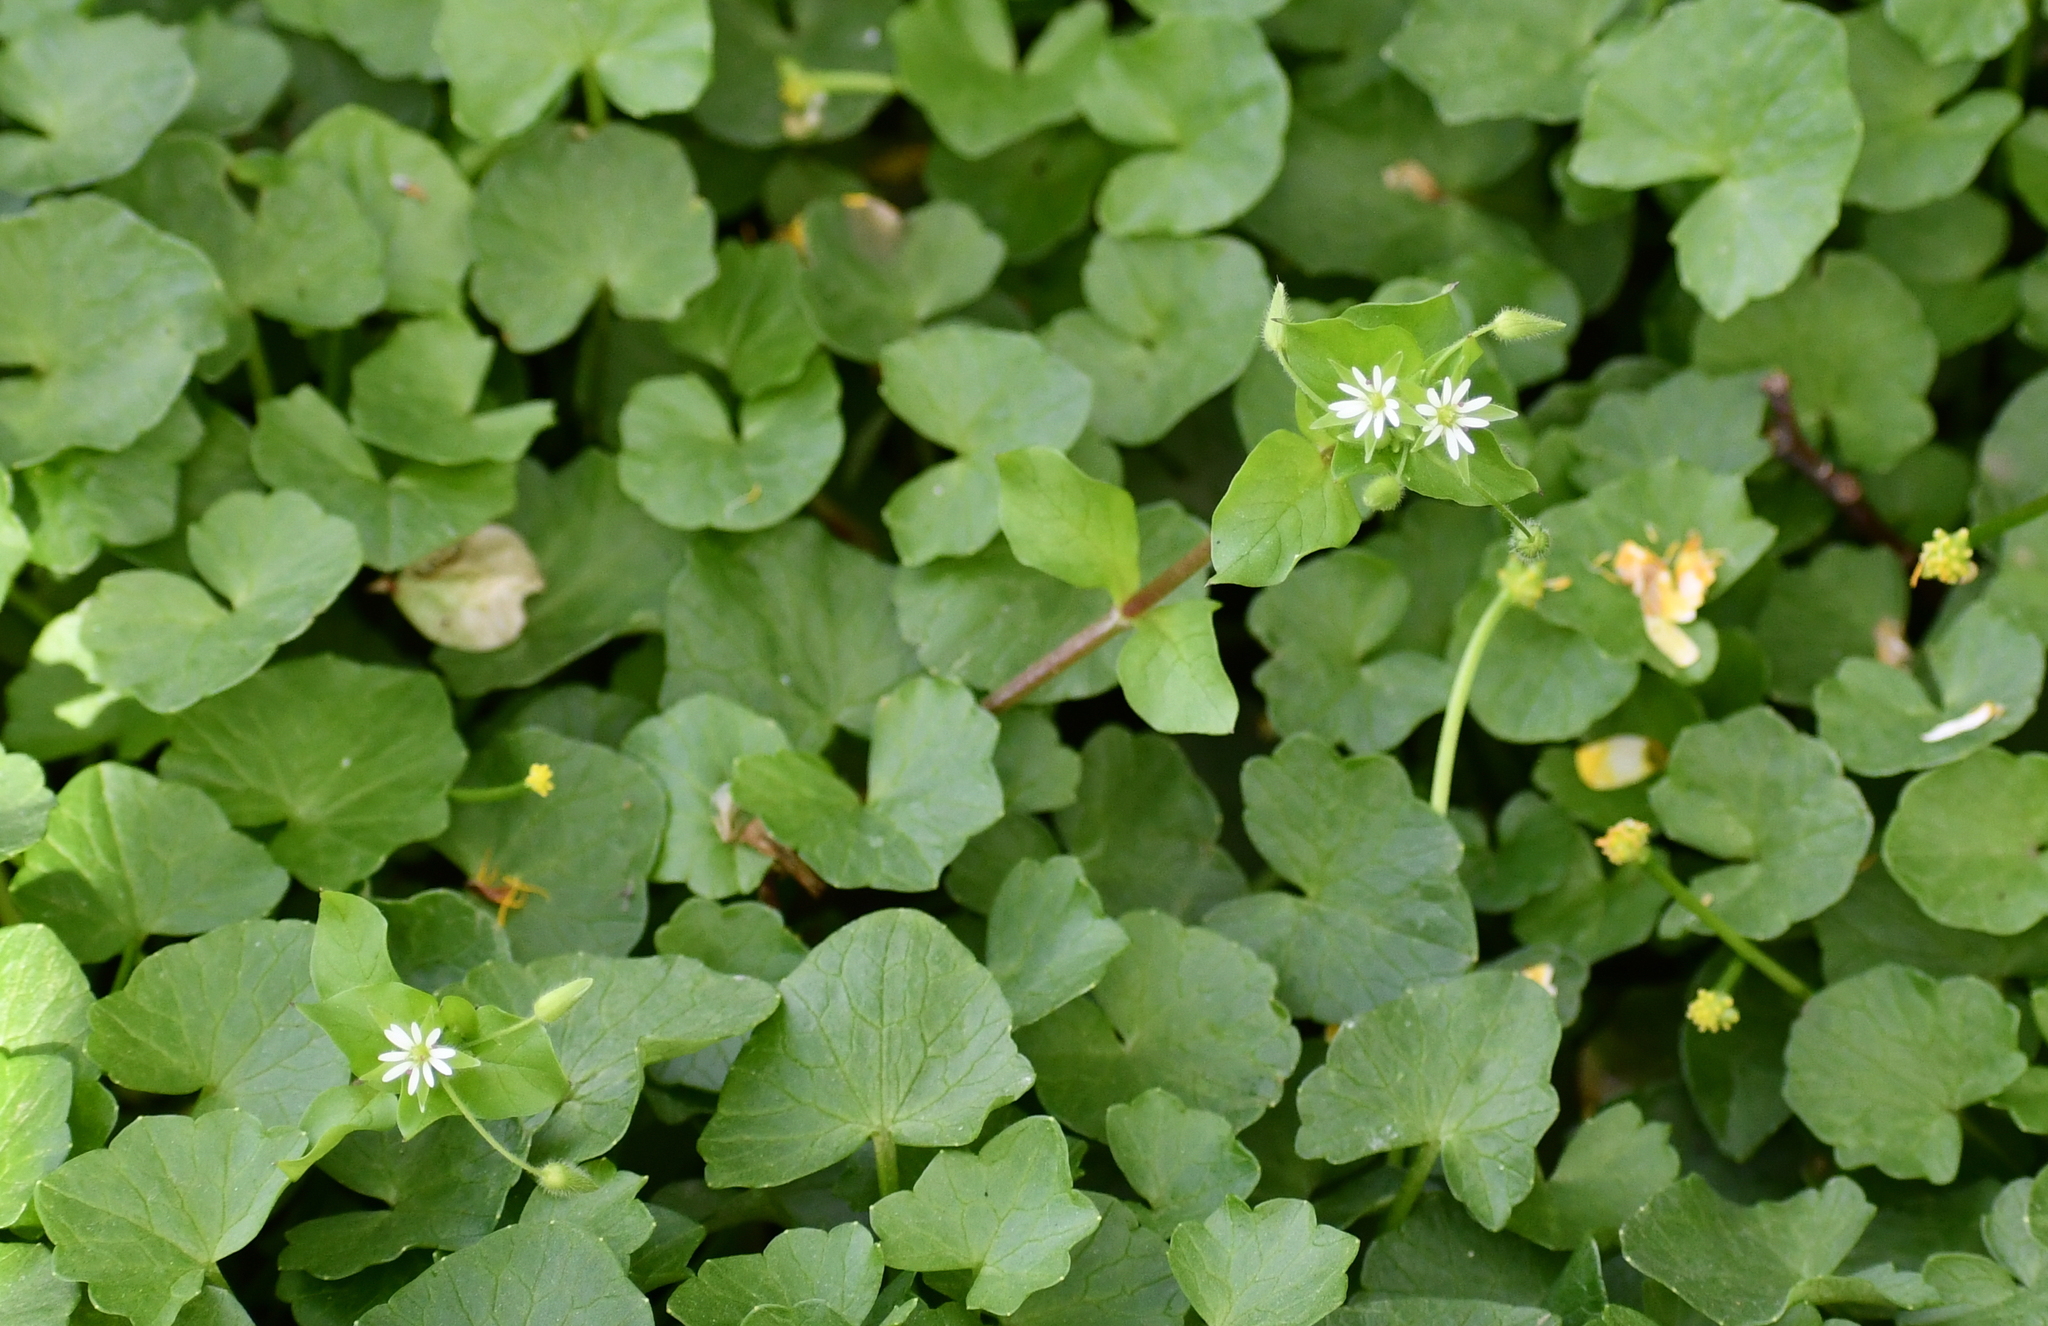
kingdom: Plantae
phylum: Tracheophyta
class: Magnoliopsida
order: Caryophyllales
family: Caryophyllaceae
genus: Stellaria
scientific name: Stellaria media
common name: Common chickweed
